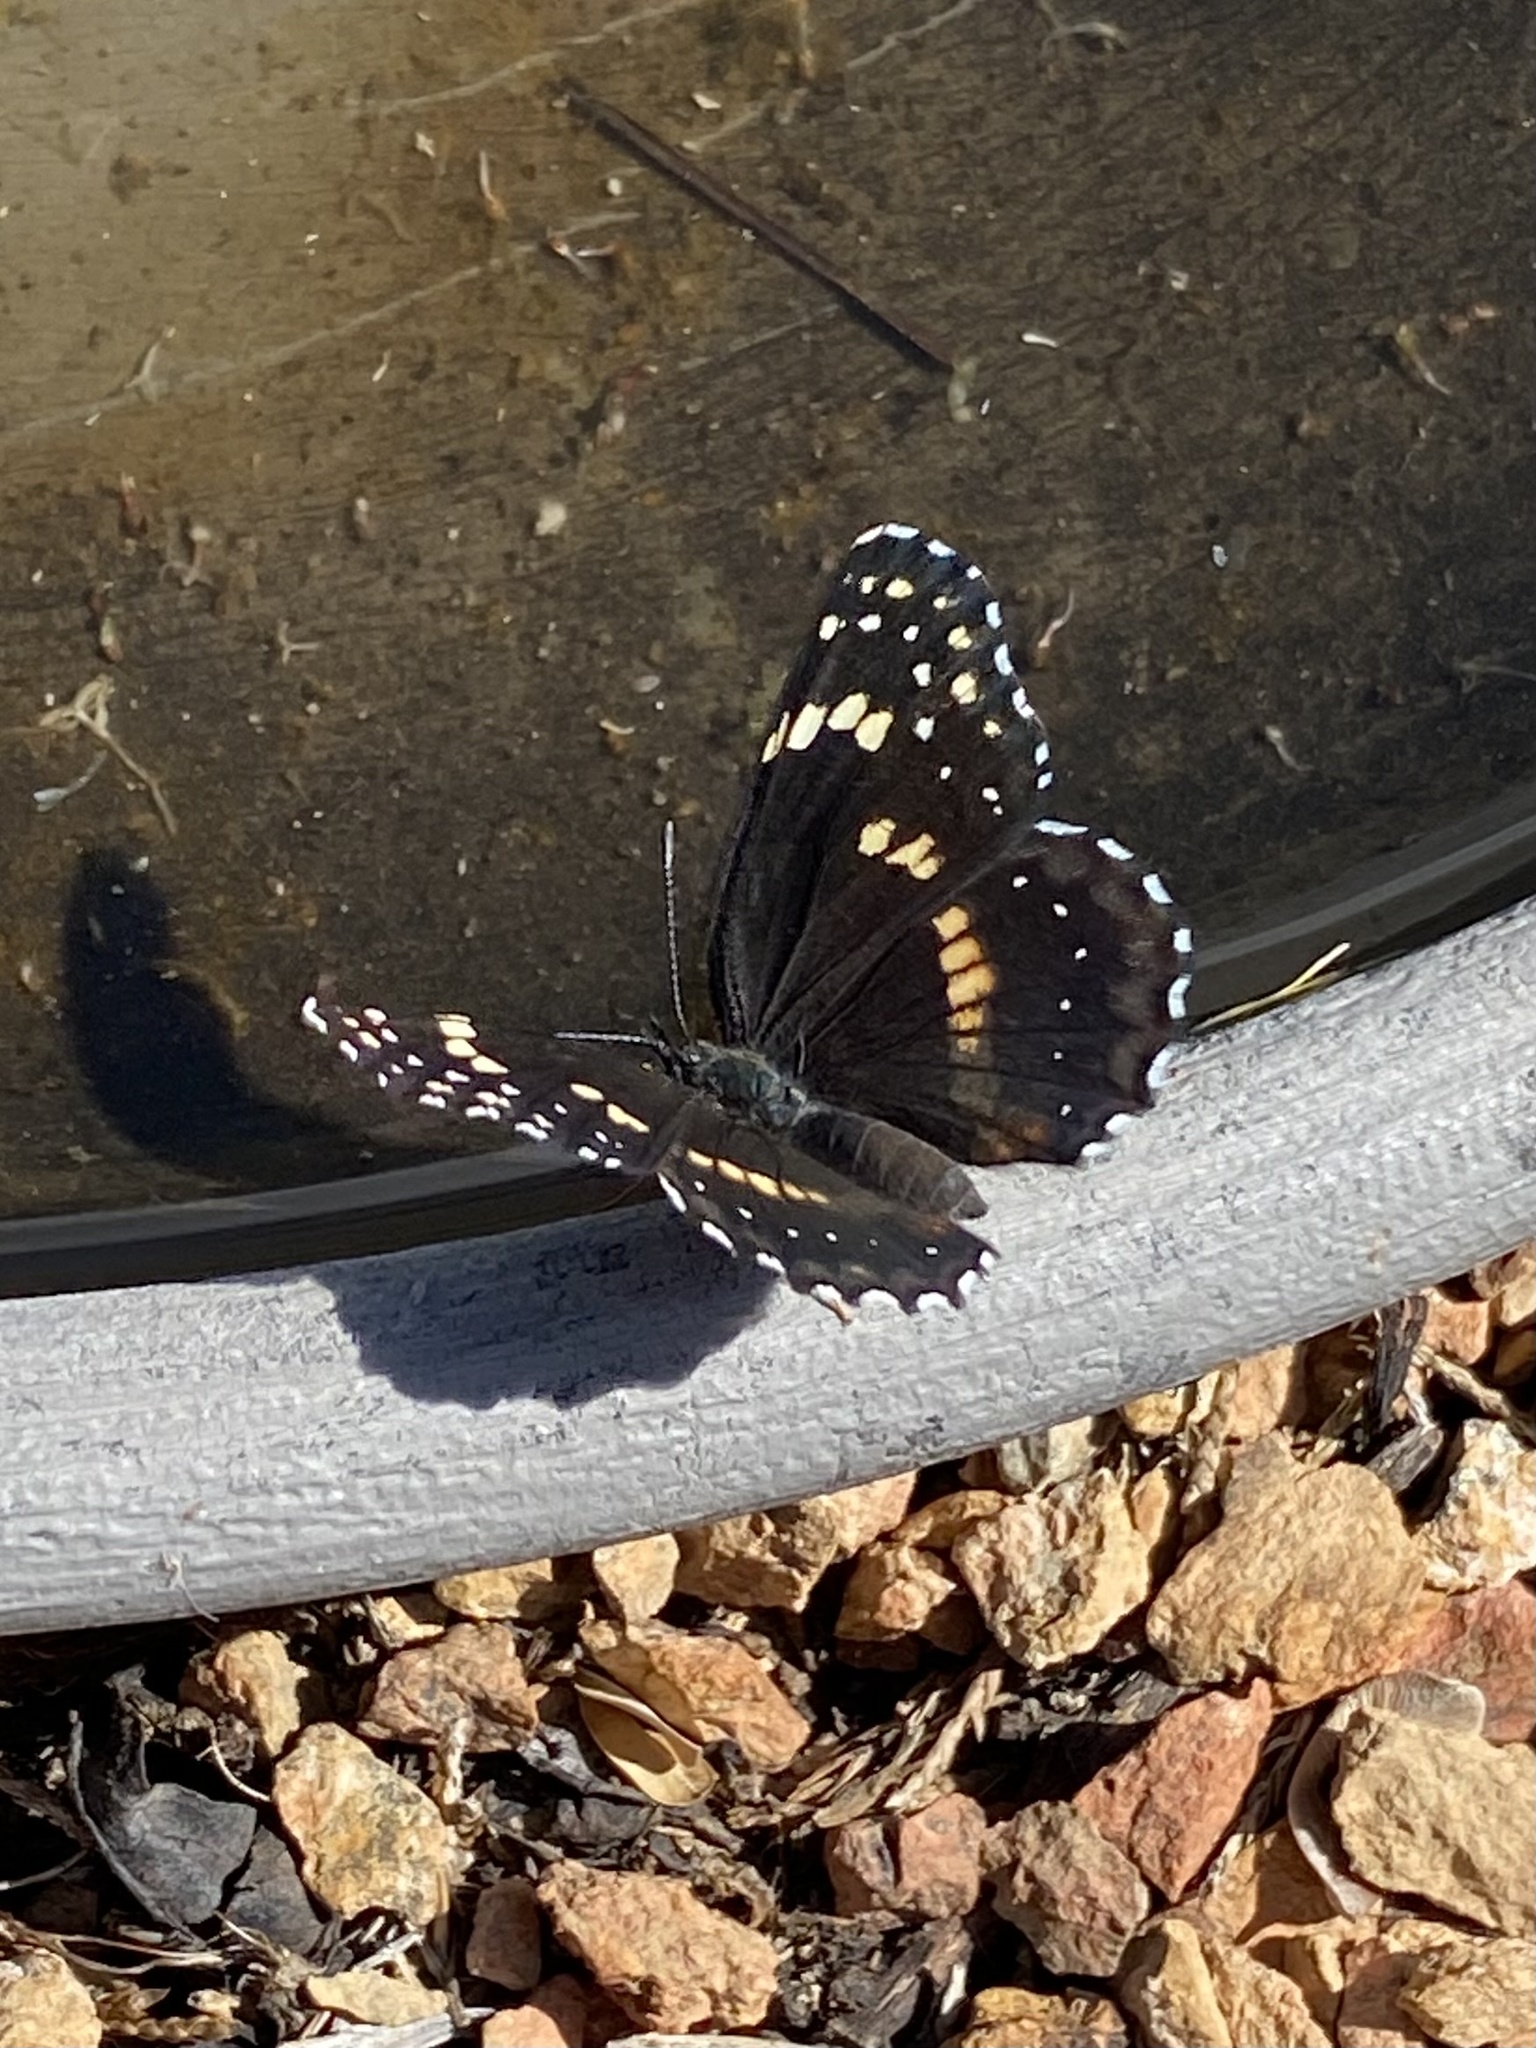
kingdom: Animalia
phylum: Arthropoda
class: Insecta
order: Lepidoptera
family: Nymphalidae
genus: Chlosyne
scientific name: Chlosyne lacinia
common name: Bordered patch
